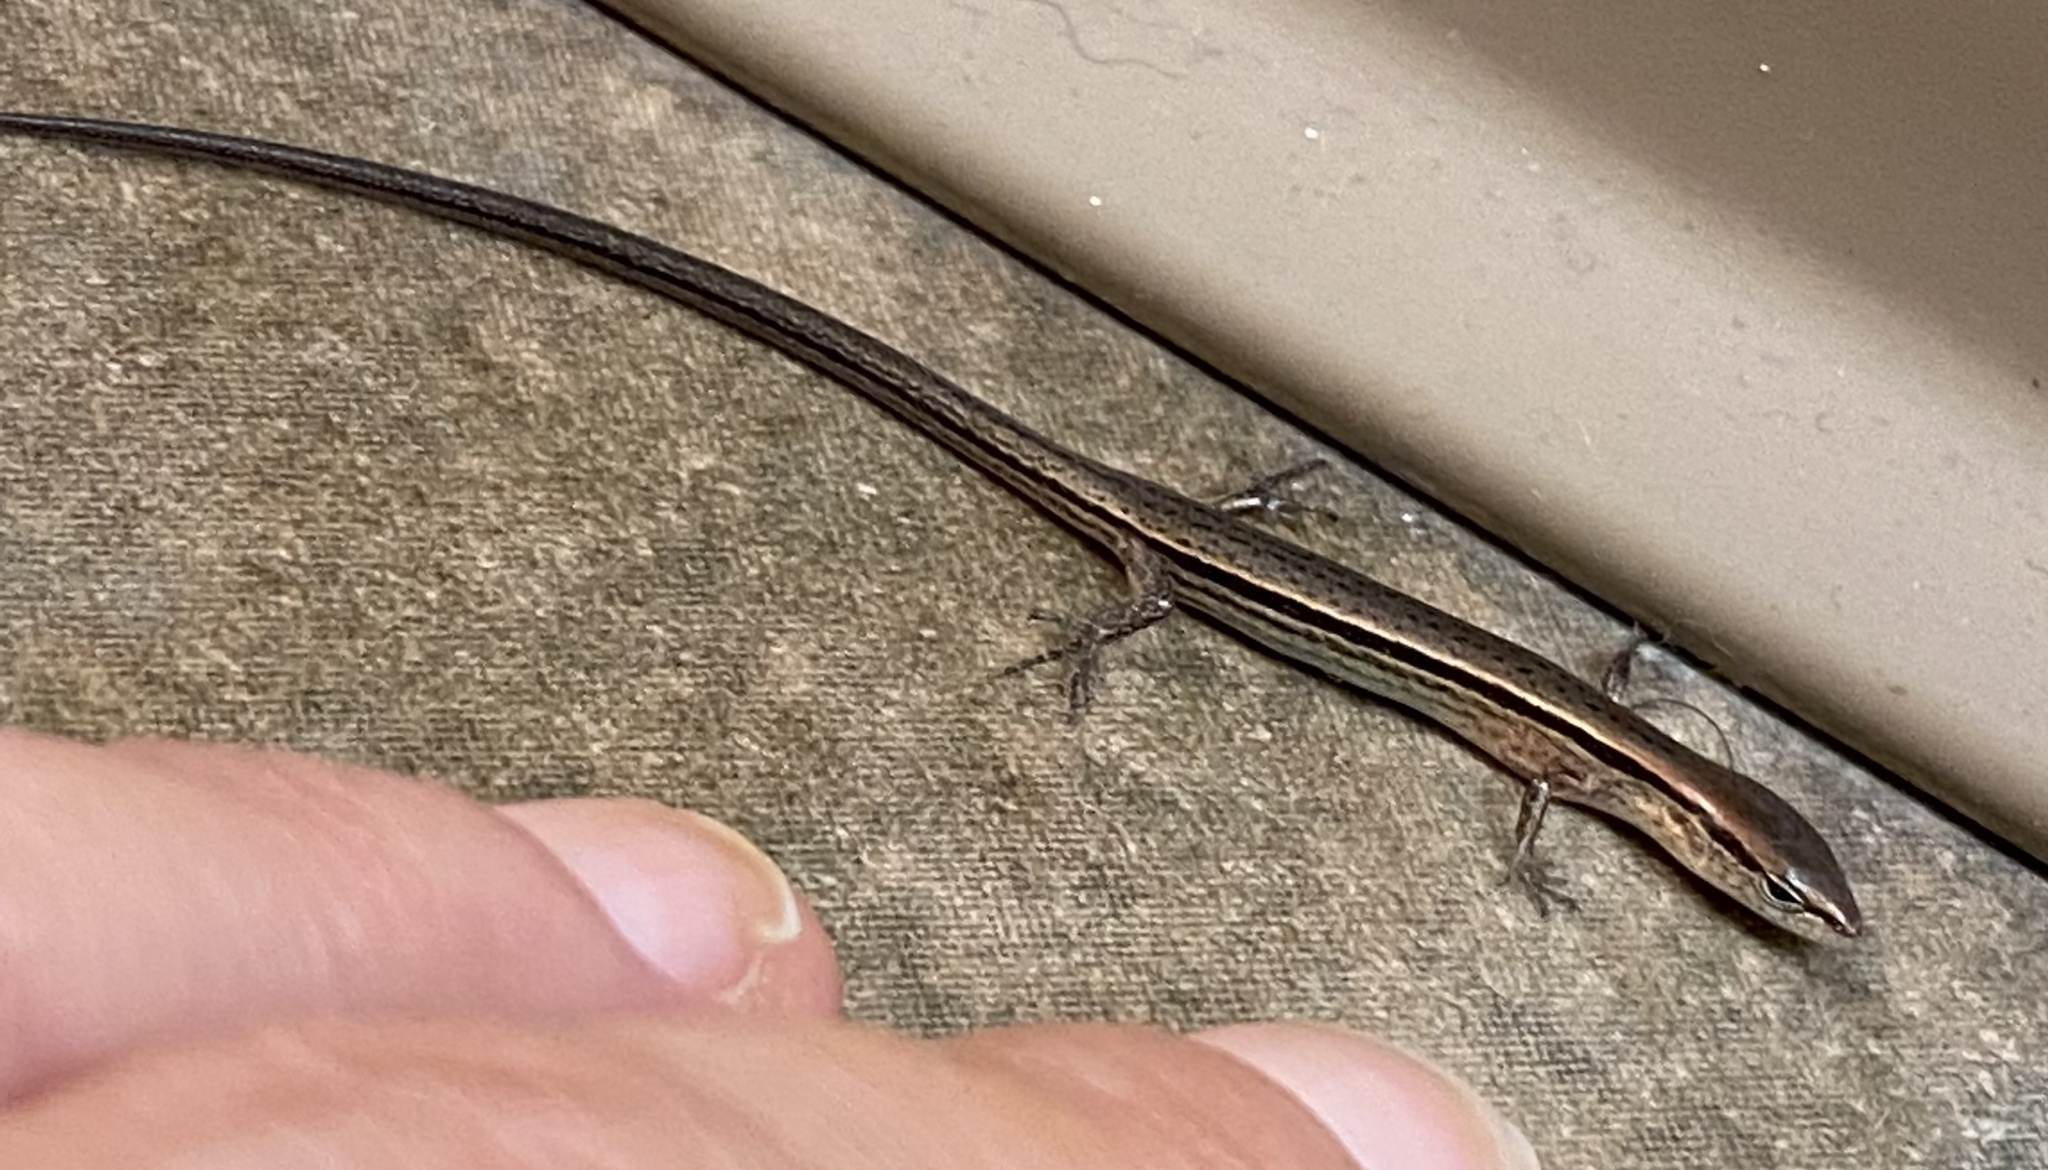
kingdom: Animalia
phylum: Chordata
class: Squamata
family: Scincidae
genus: Scincella
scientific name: Scincella lateralis
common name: Ground skink
